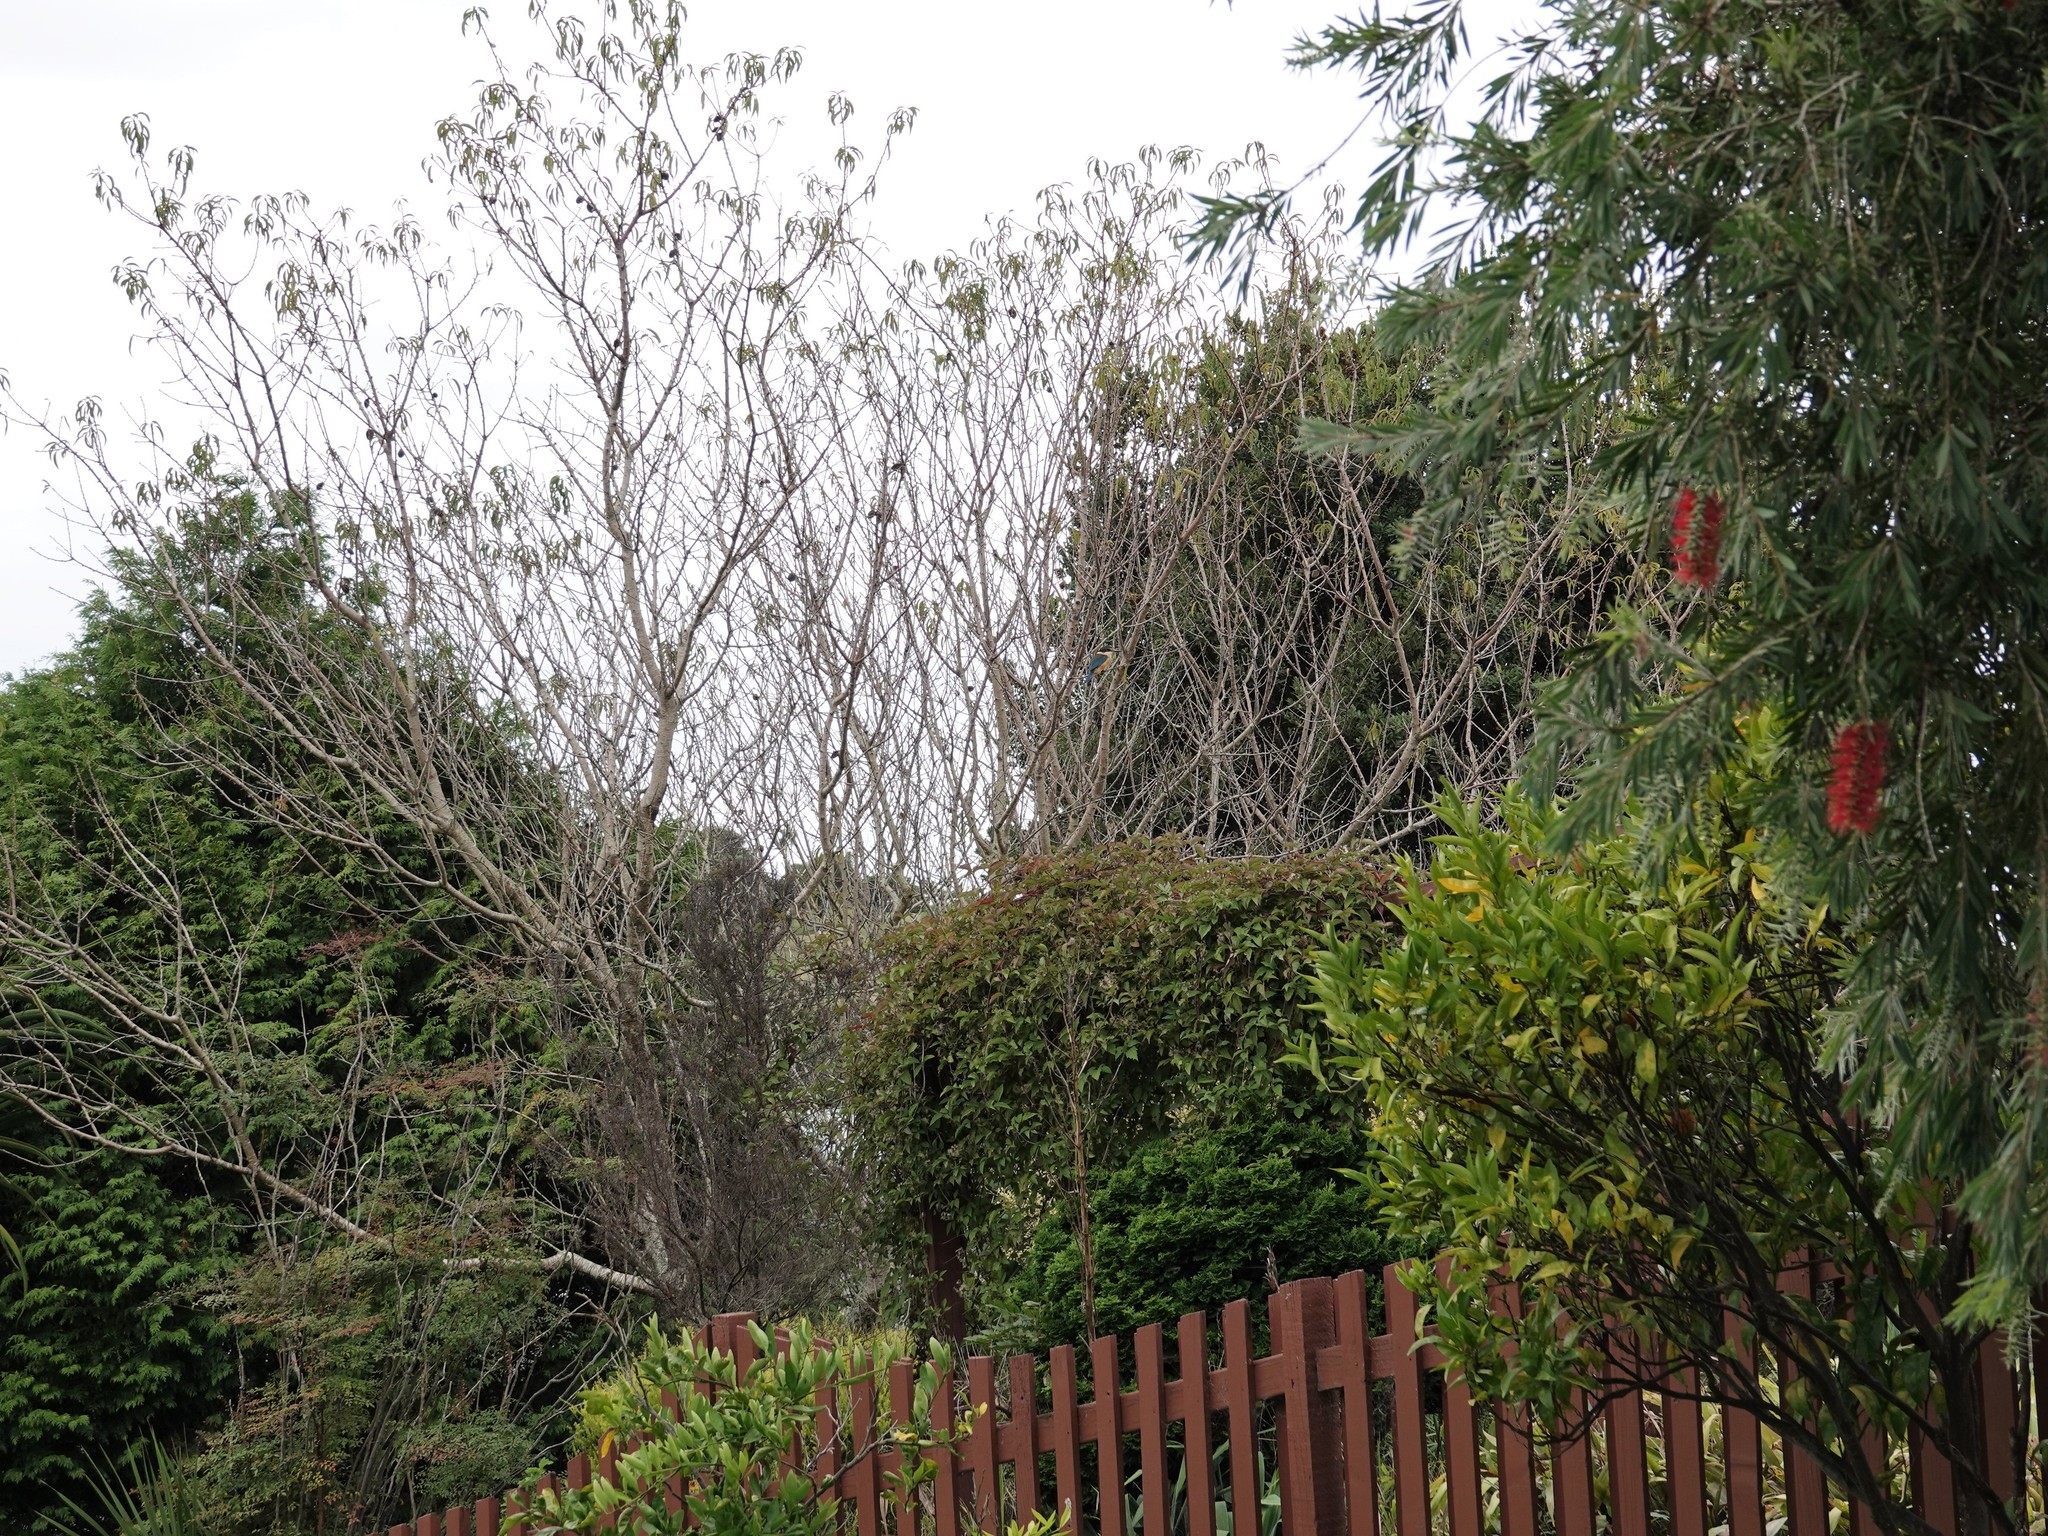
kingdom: Animalia
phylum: Chordata
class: Aves
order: Coraciiformes
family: Alcedinidae
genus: Todiramphus
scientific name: Todiramphus sanctus
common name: Sacred kingfisher
